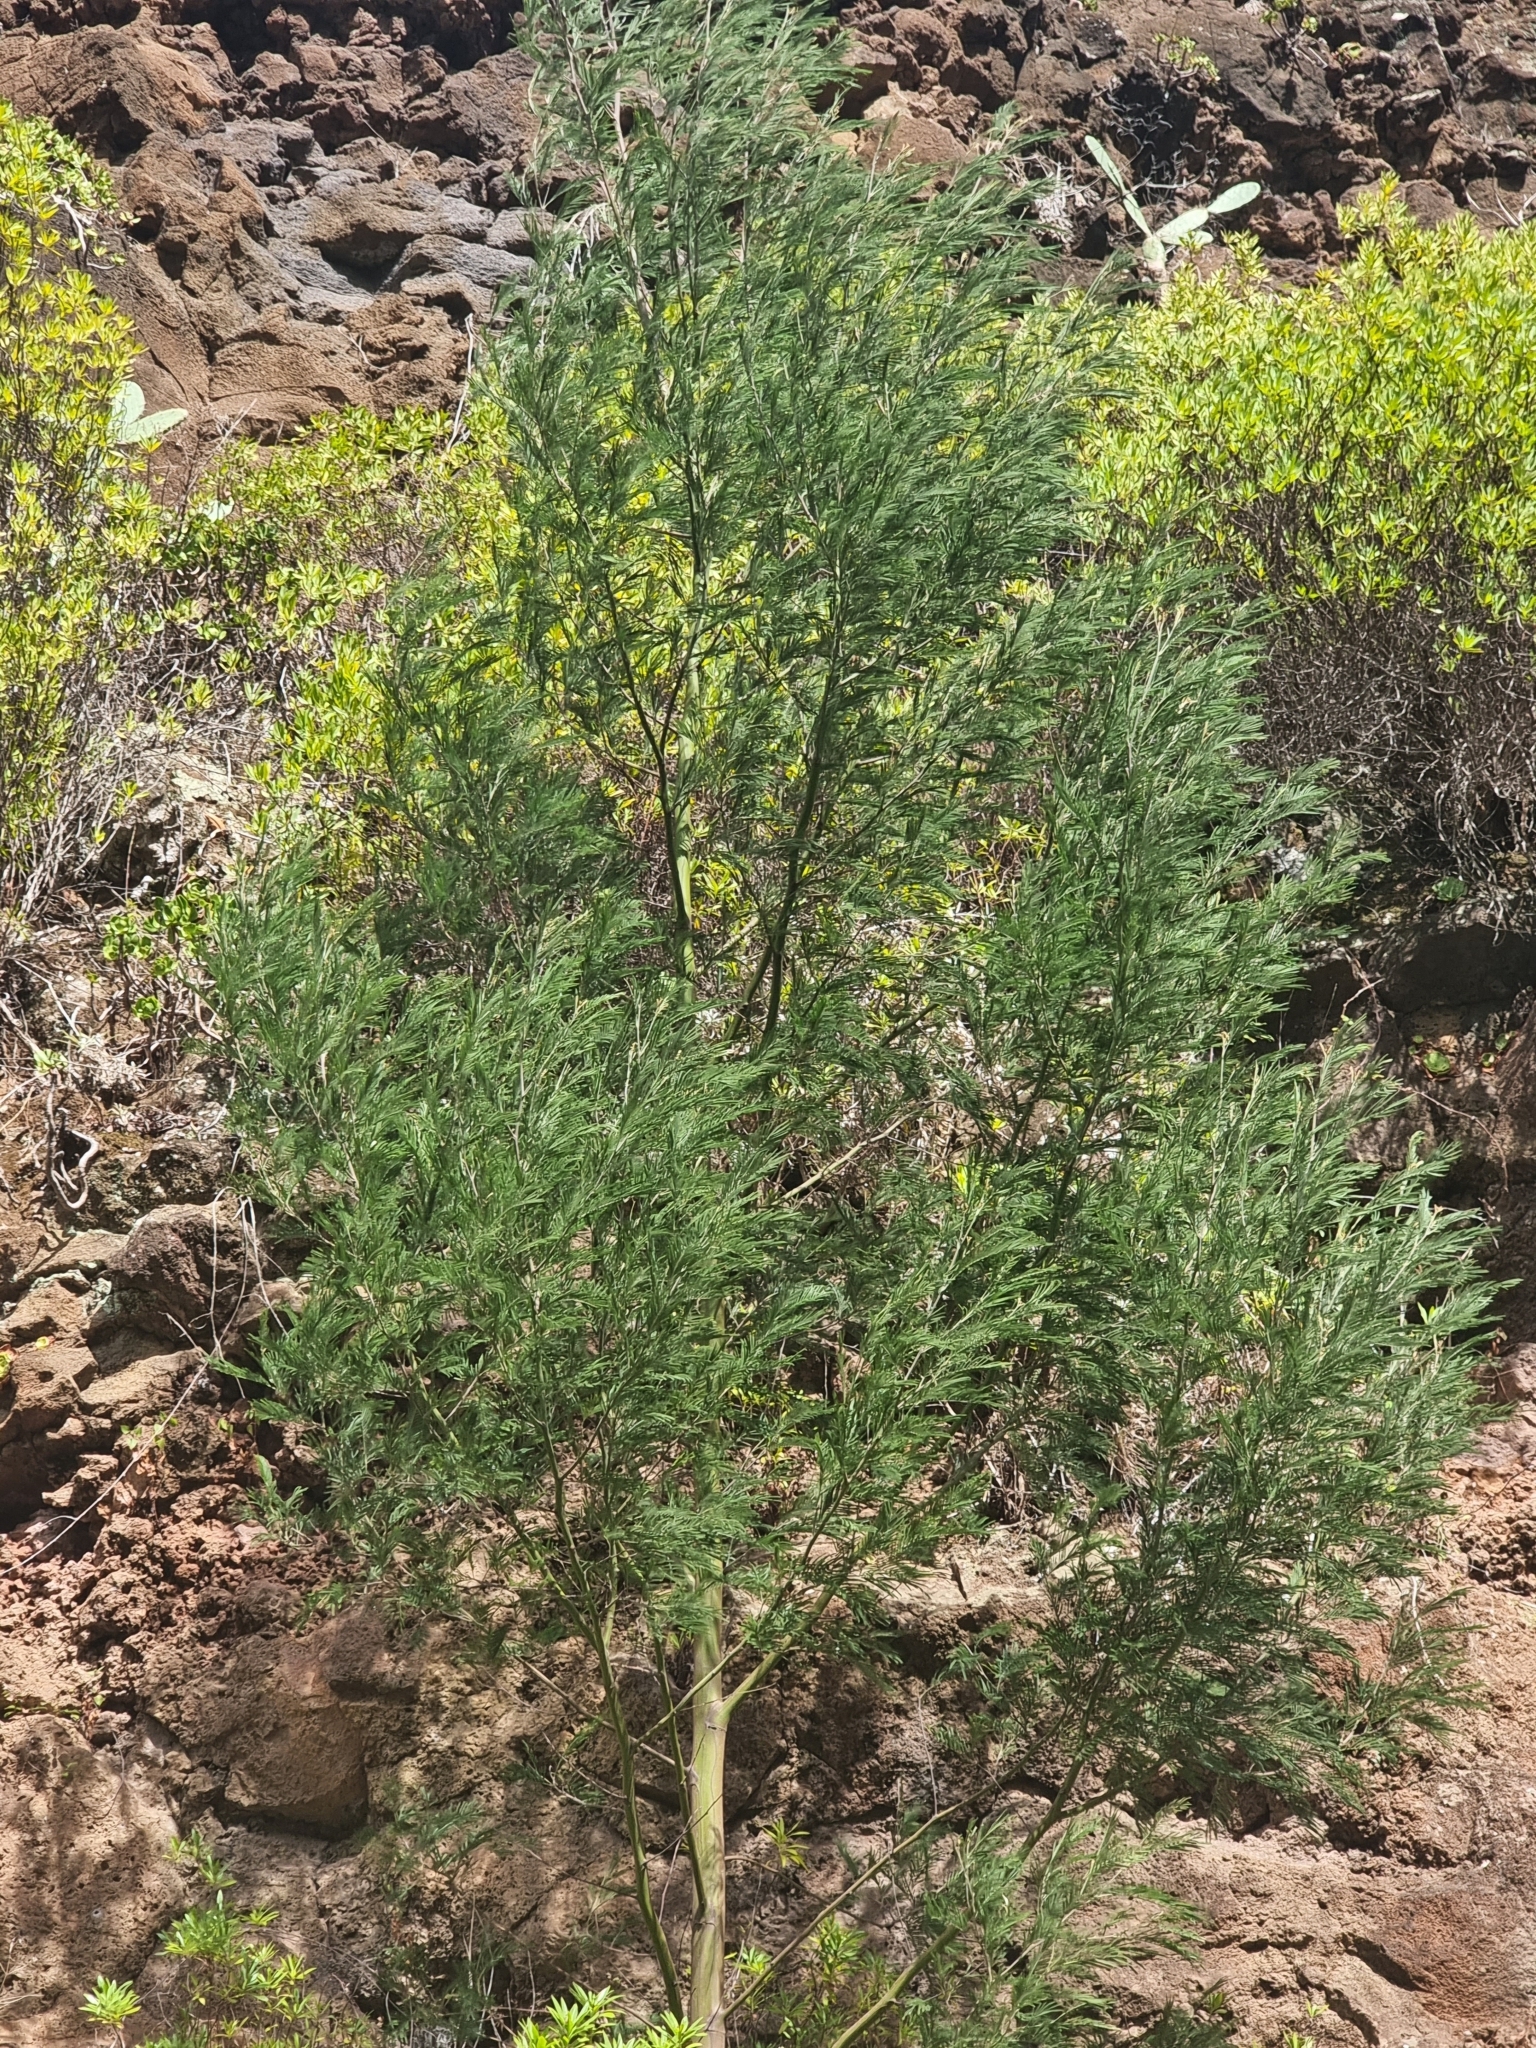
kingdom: Plantae
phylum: Tracheophyta
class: Magnoliopsida
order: Fabales
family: Fabaceae
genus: Acacia
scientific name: Acacia mearnsii
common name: Black wattle
